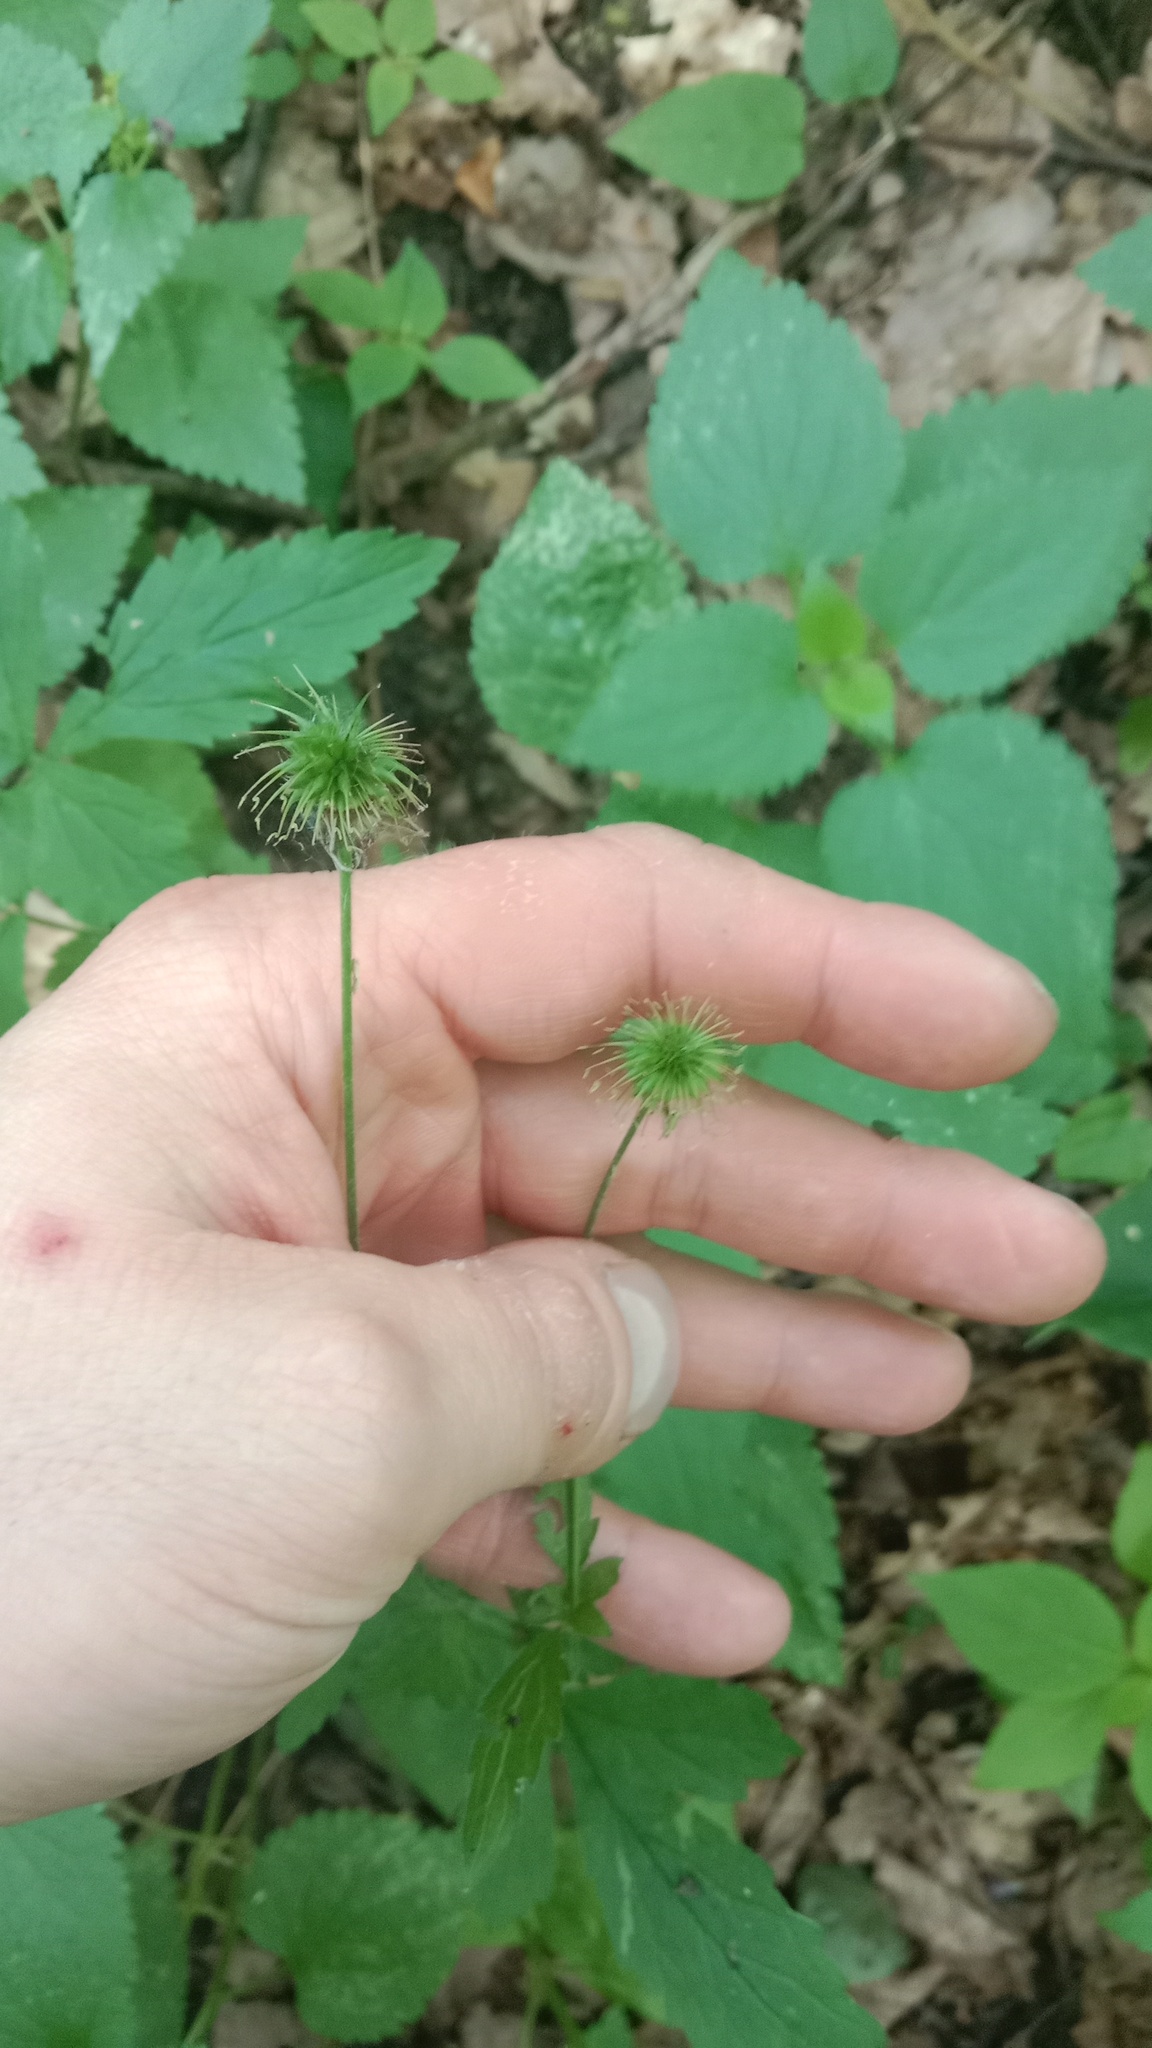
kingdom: Plantae
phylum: Tracheophyta
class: Magnoliopsida
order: Rosales
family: Rosaceae
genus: Geum
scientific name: Geum urbanum
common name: Wood avens
